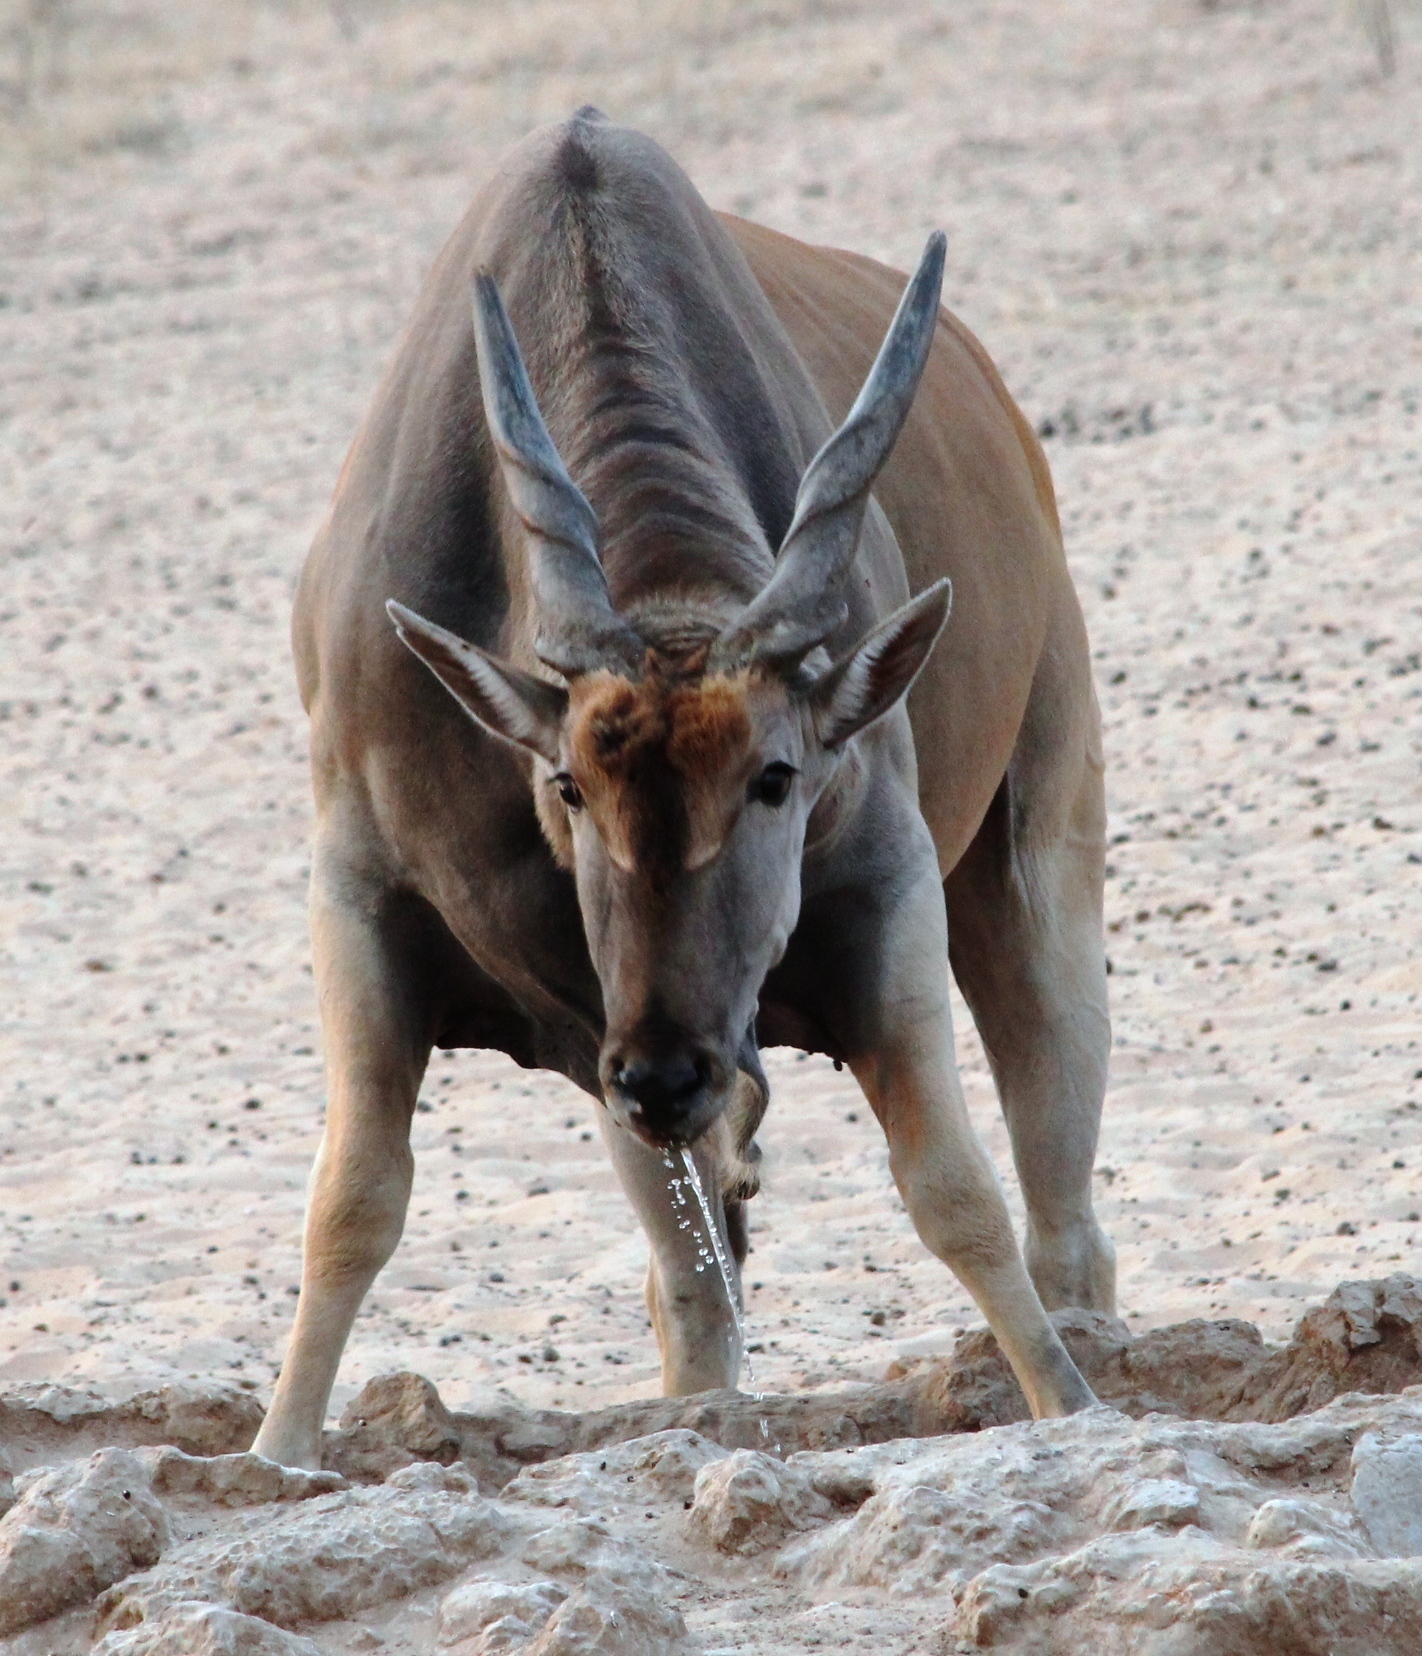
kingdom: Animalia
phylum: Chordata
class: Mammalia
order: Artiodactyla
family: Bovidae
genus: Taurotragus
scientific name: Taurotragus oryx
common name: Common eland
